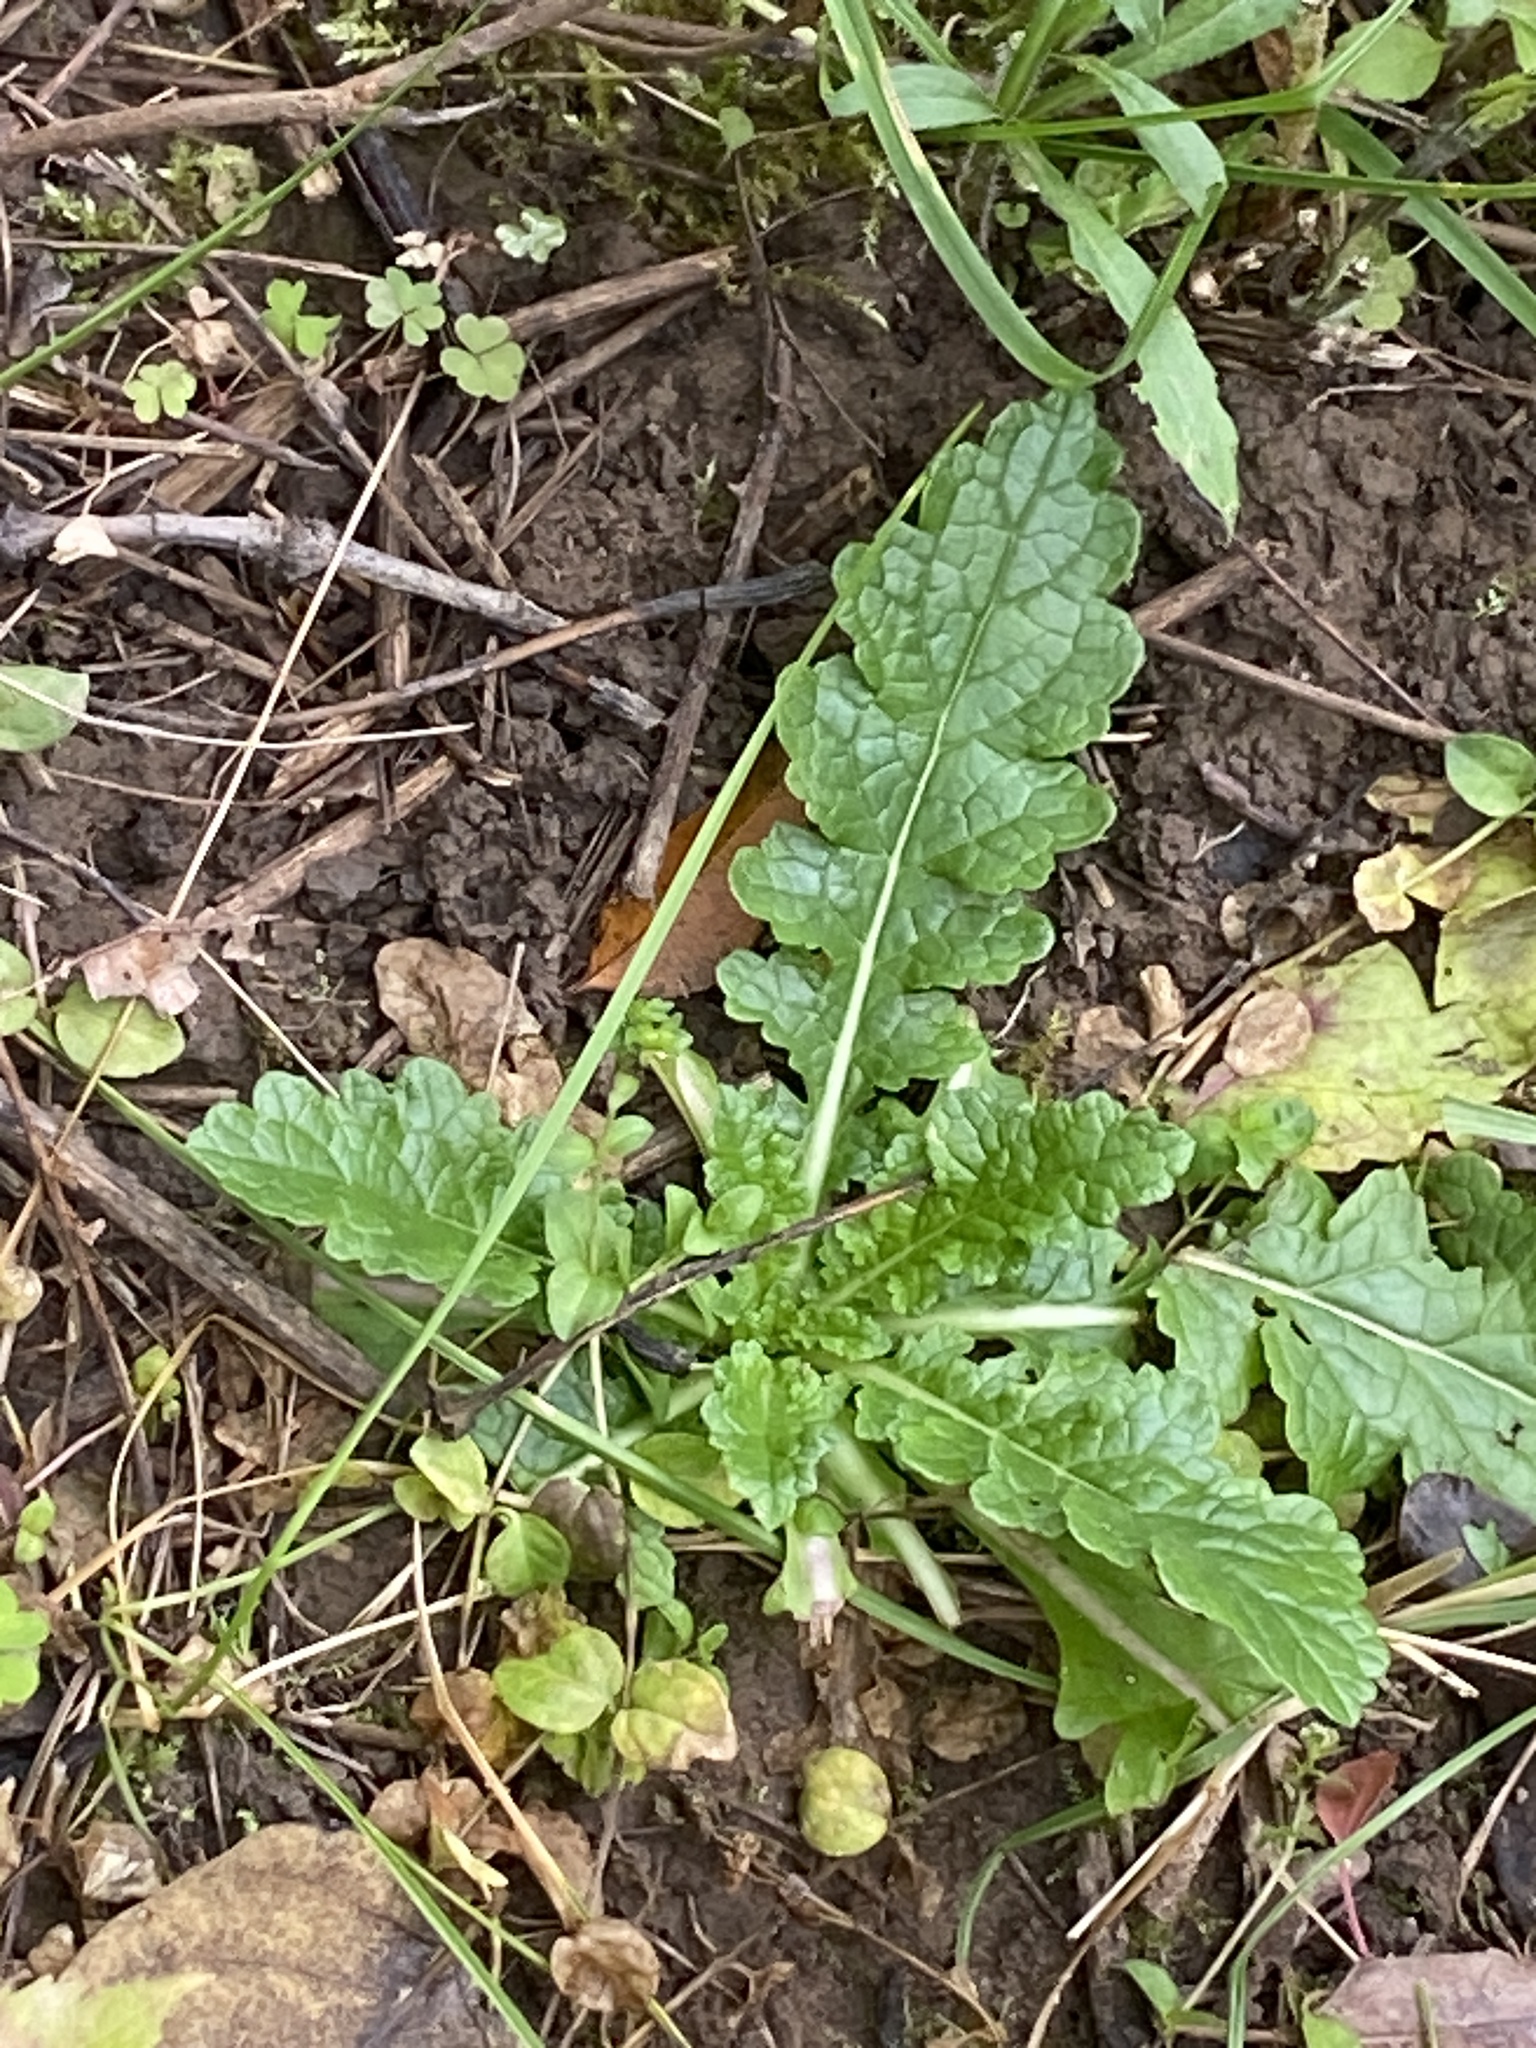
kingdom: Plantae
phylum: Tracheophyta
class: Magnoliopsida
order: Lamiales
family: Scrophulariaceae
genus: Verbascum
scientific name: Verbascum blattaria
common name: Moth mullein
